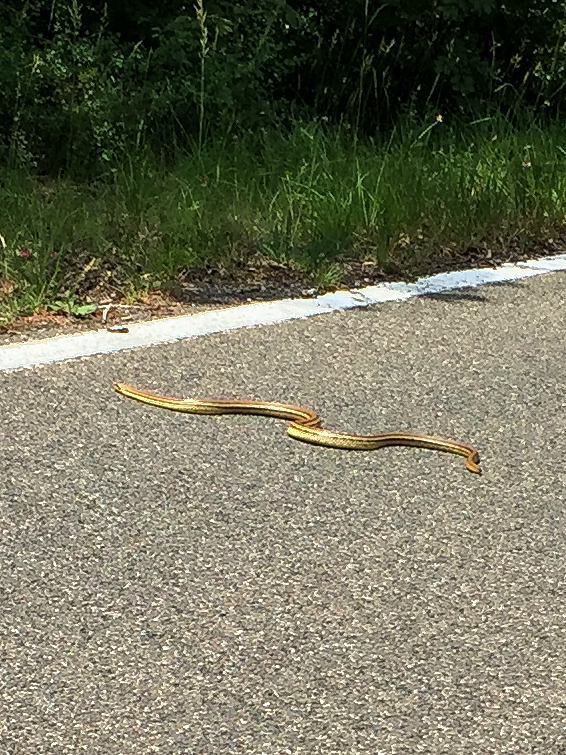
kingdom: Animalia
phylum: Chordata
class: Squamata
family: Colubridae
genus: Elaphe
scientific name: Elaphe quatuorlineata
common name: Four-lined snake
